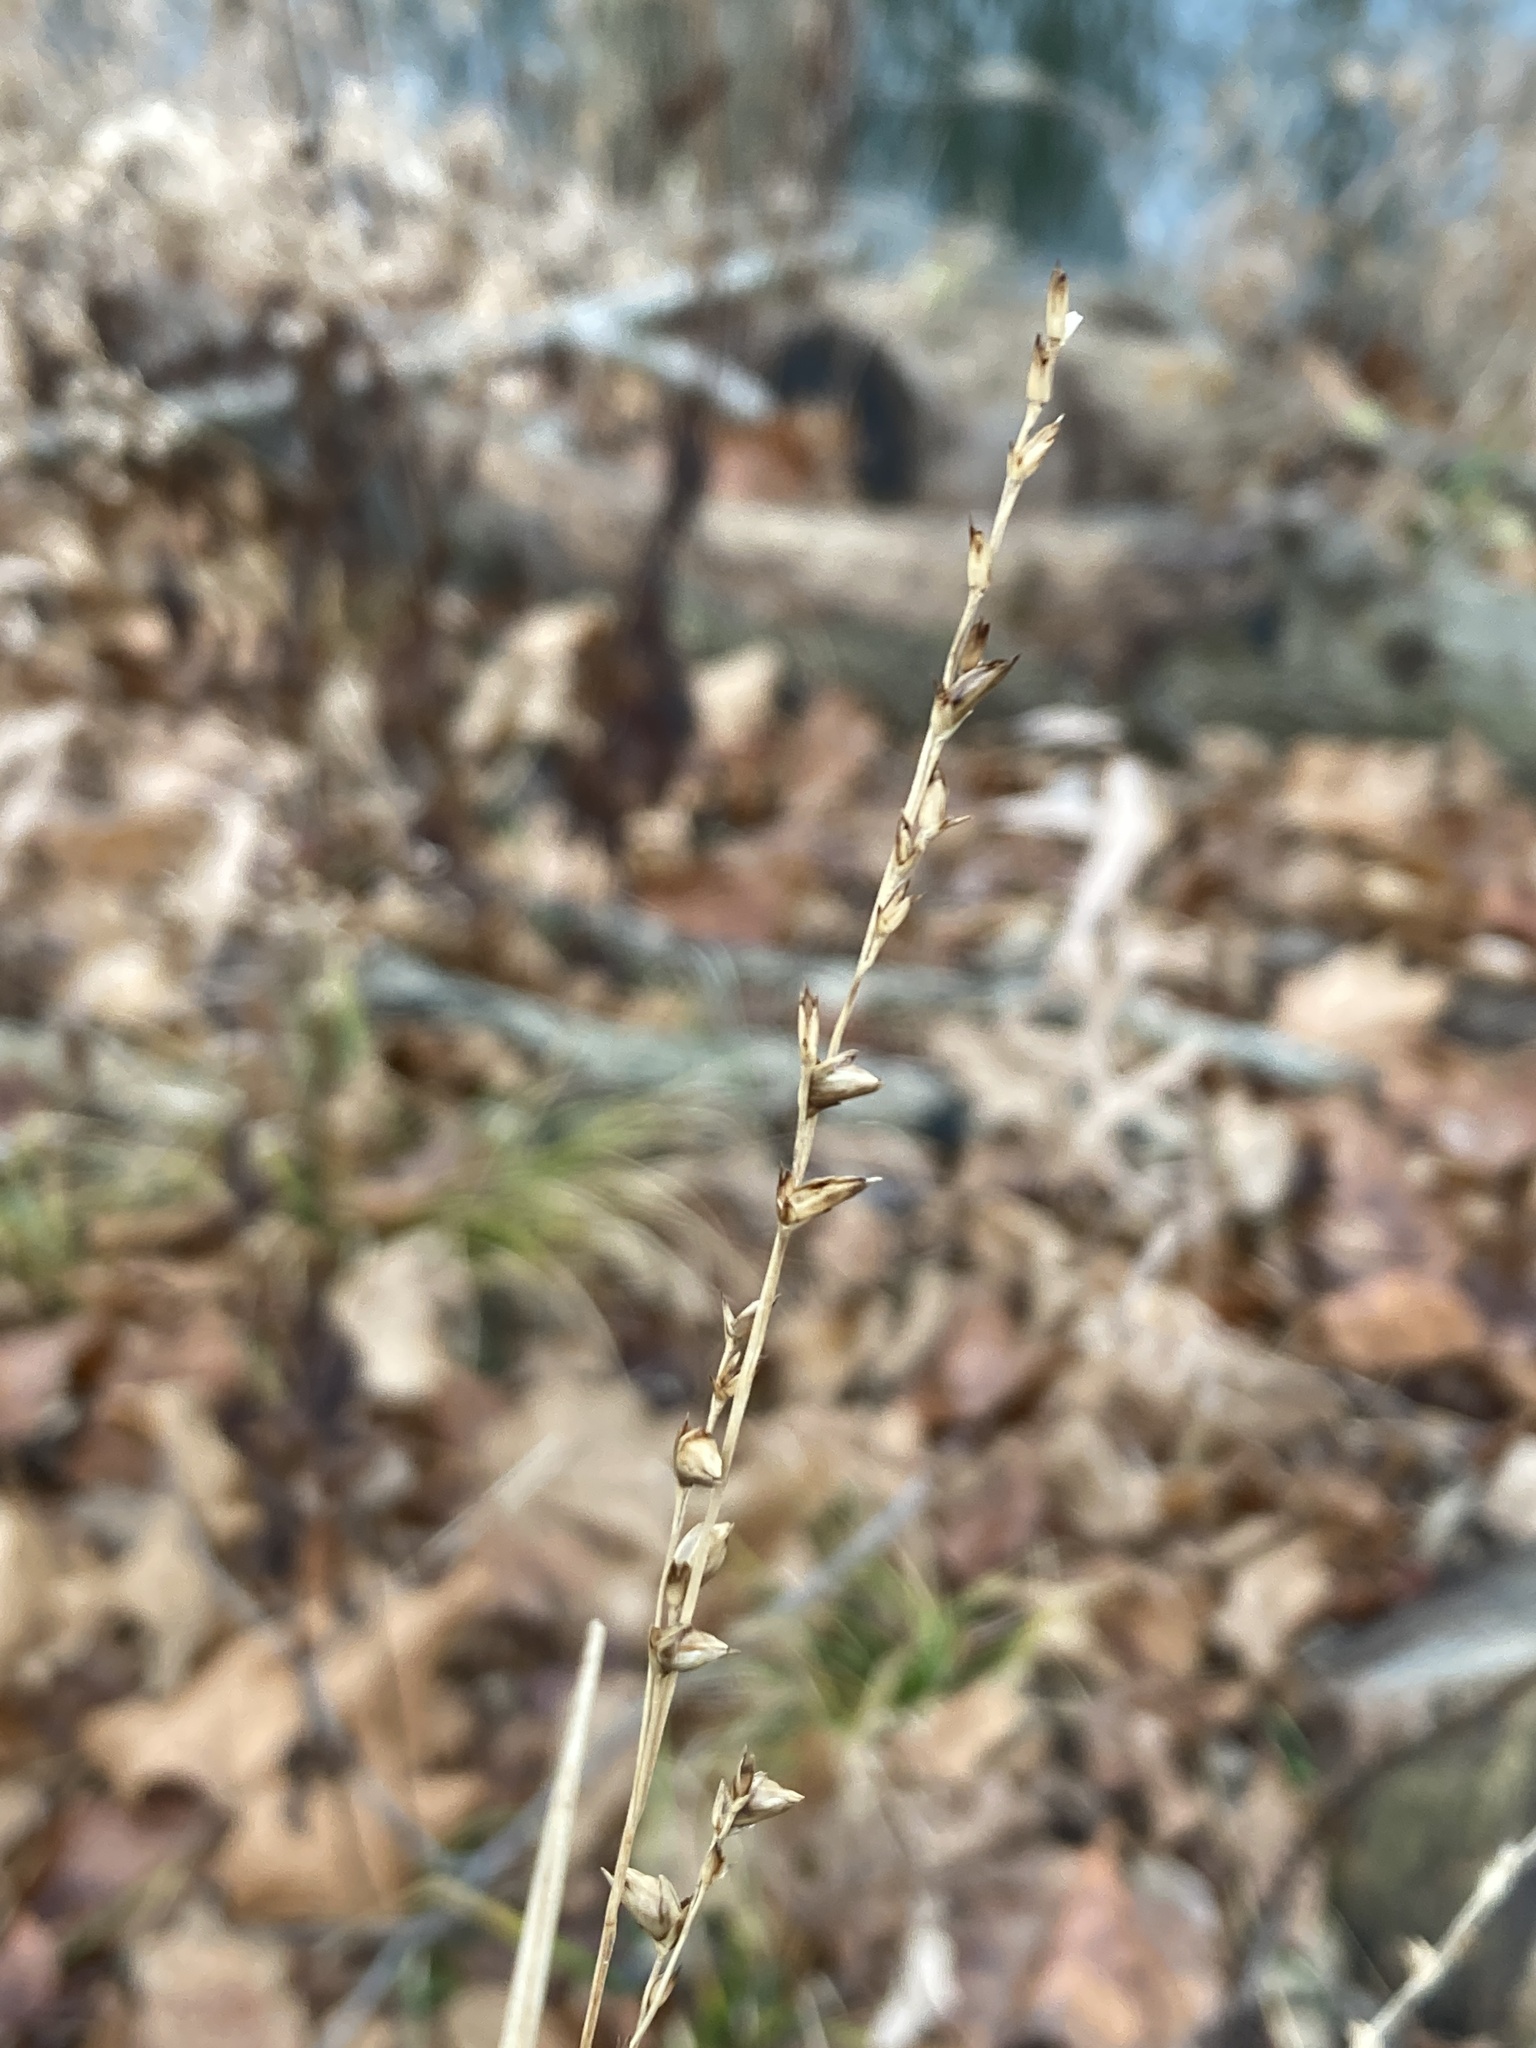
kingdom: Plantae
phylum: Tracheophyta
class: Liliopsida
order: Poales
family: Poaceae
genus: Diarrhena
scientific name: Diarrhena obovata
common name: Beakgrass
